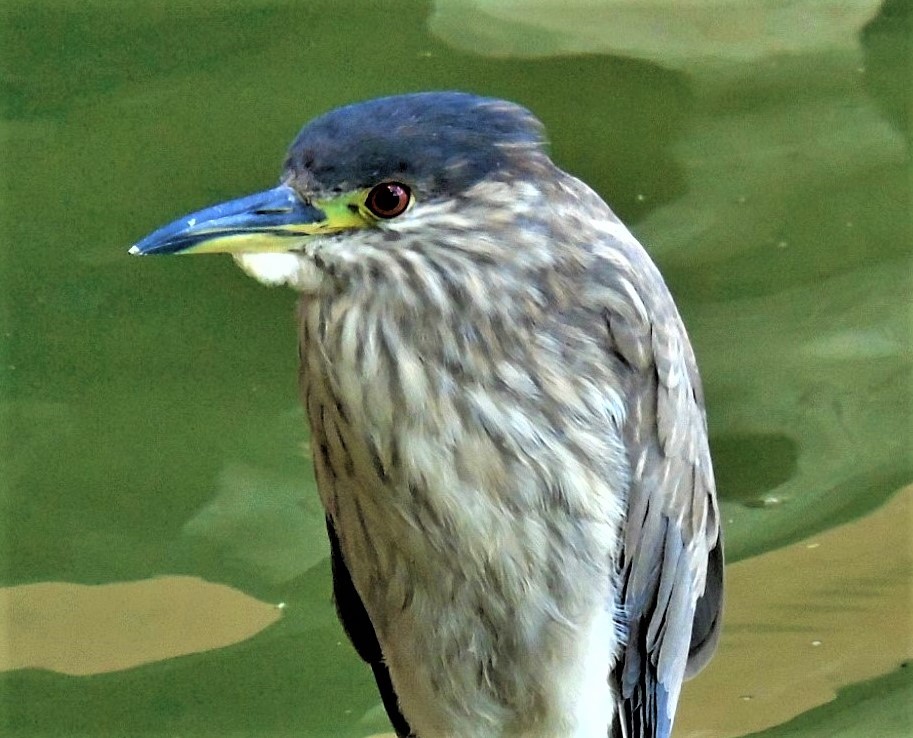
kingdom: Animalia
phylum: Chordata
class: Aves
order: Pelecaniformes
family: Ardeidae
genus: Nycticorax
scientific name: Nycticorax nycticorax
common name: Black-crowned night heron
